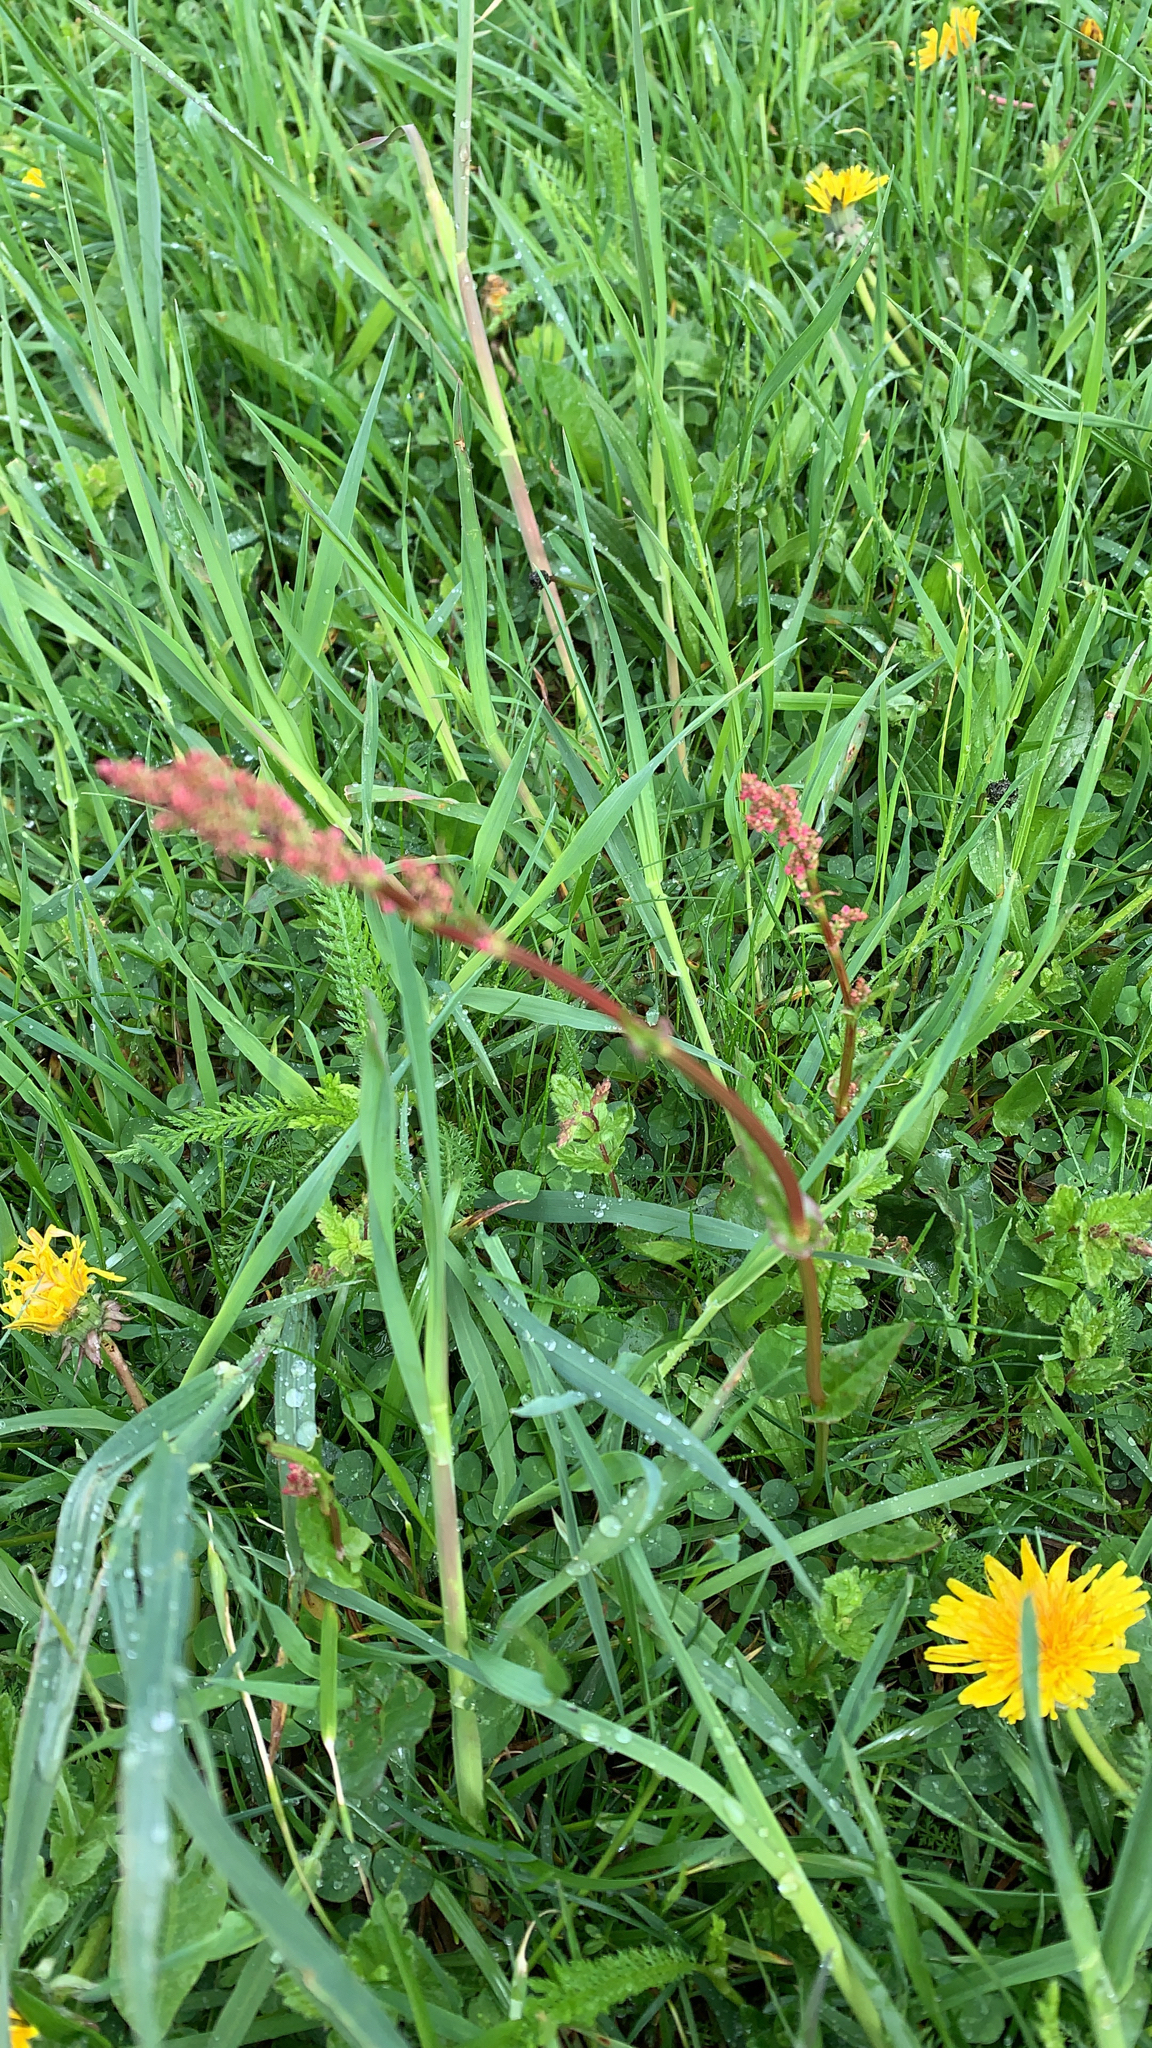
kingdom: Plantae
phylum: Tracheophyta
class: Magnoliopsida
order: Caryophyllales
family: Polygonaceae
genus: Rumex
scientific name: Rumex acetosa
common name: Garden sorrel
